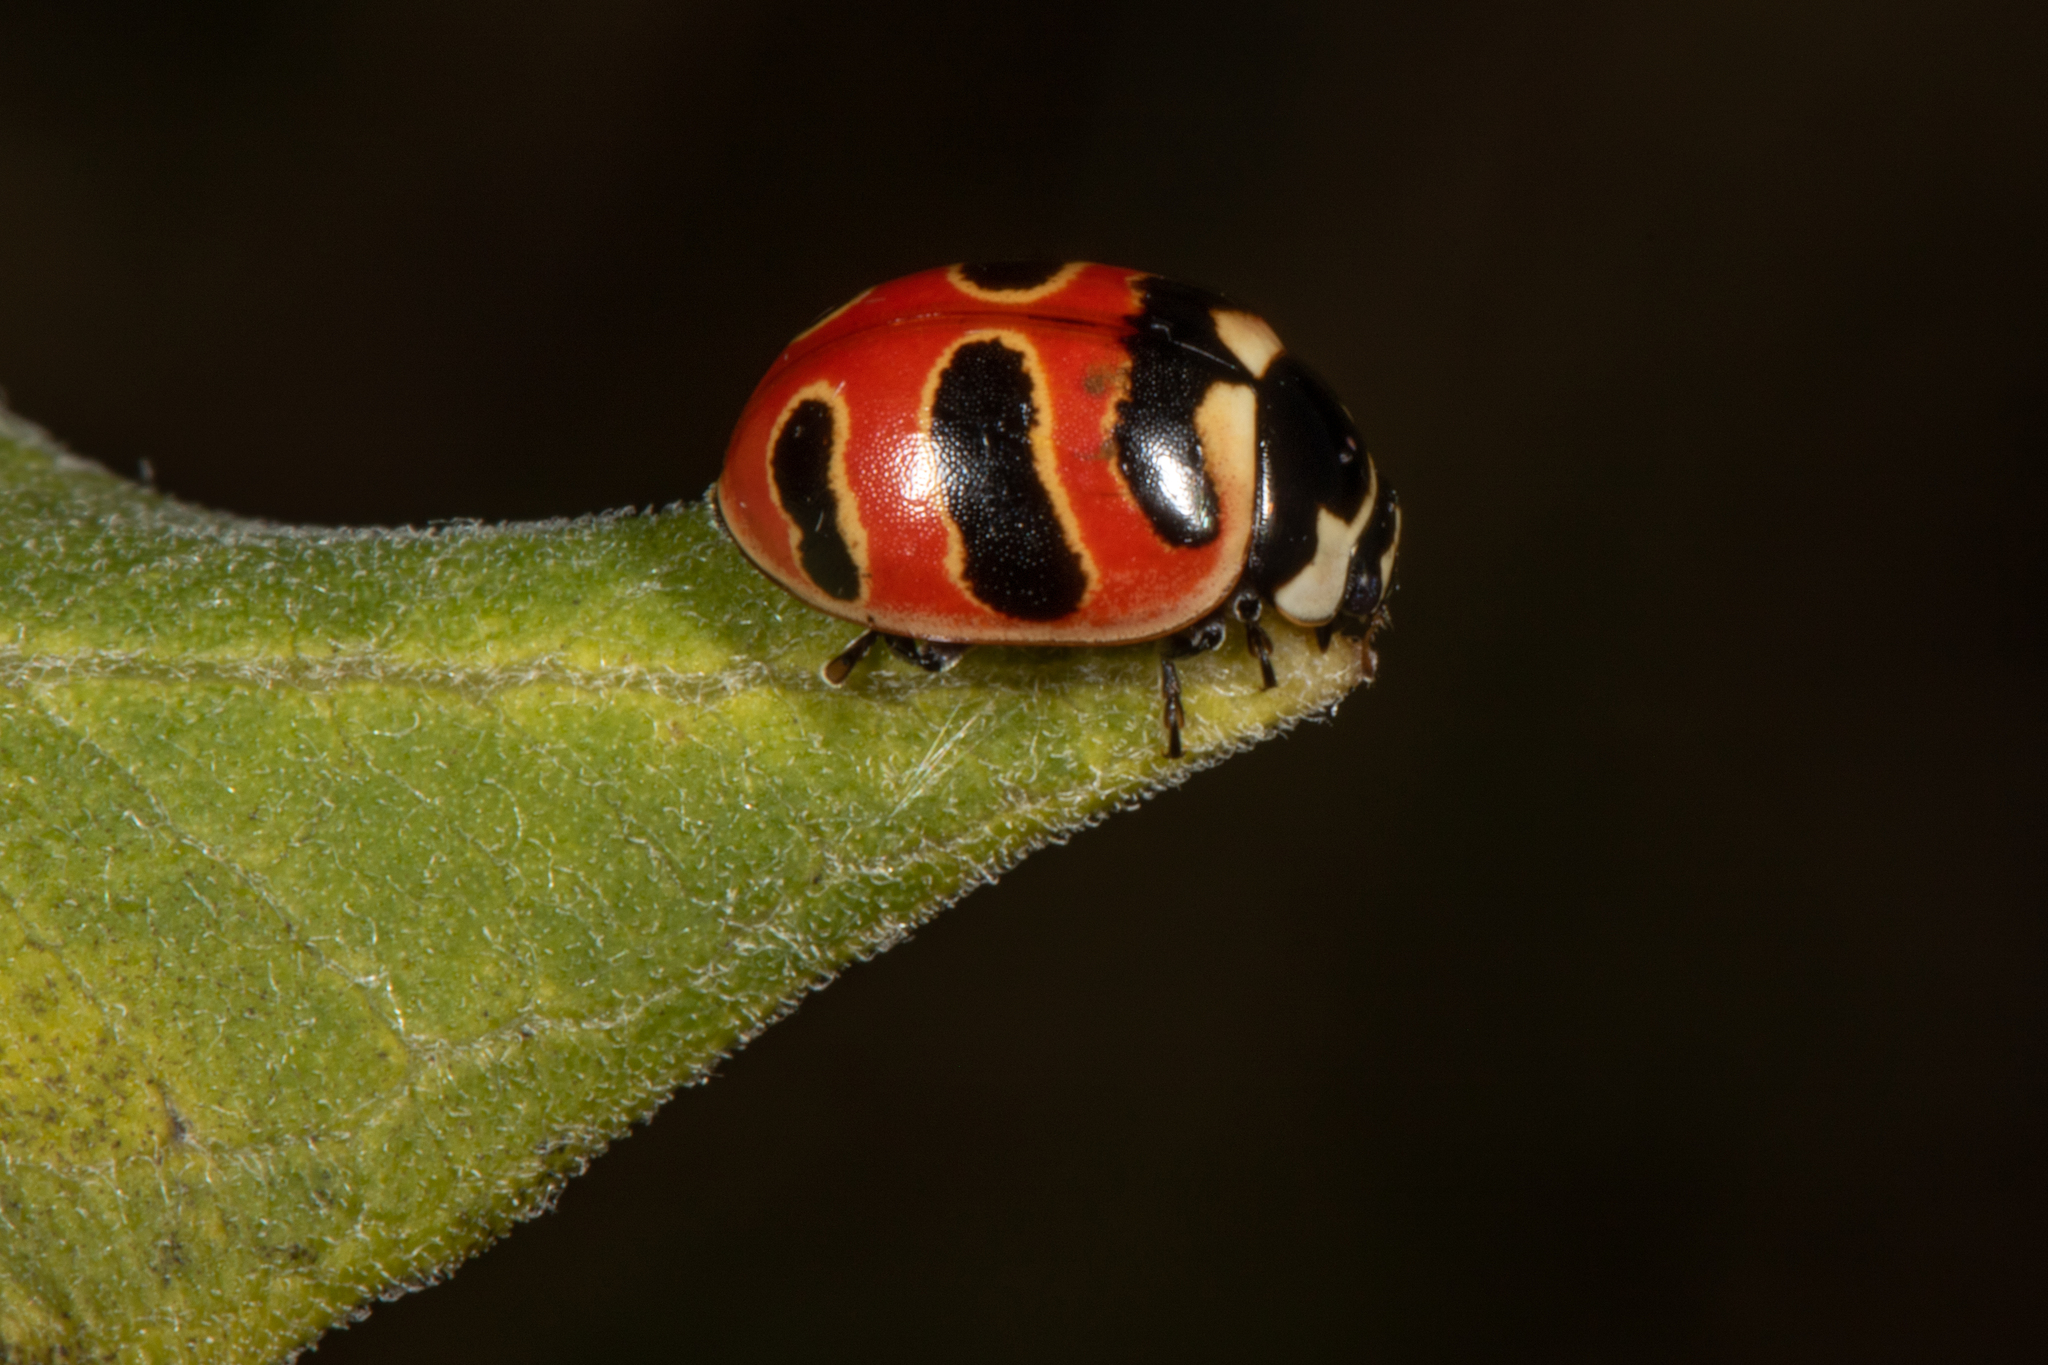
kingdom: Animalia
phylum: Arthropoda
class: Insecta
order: Coleoptera
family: Coccinellidae
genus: Coccinella
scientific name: Coccinella trifasciata
